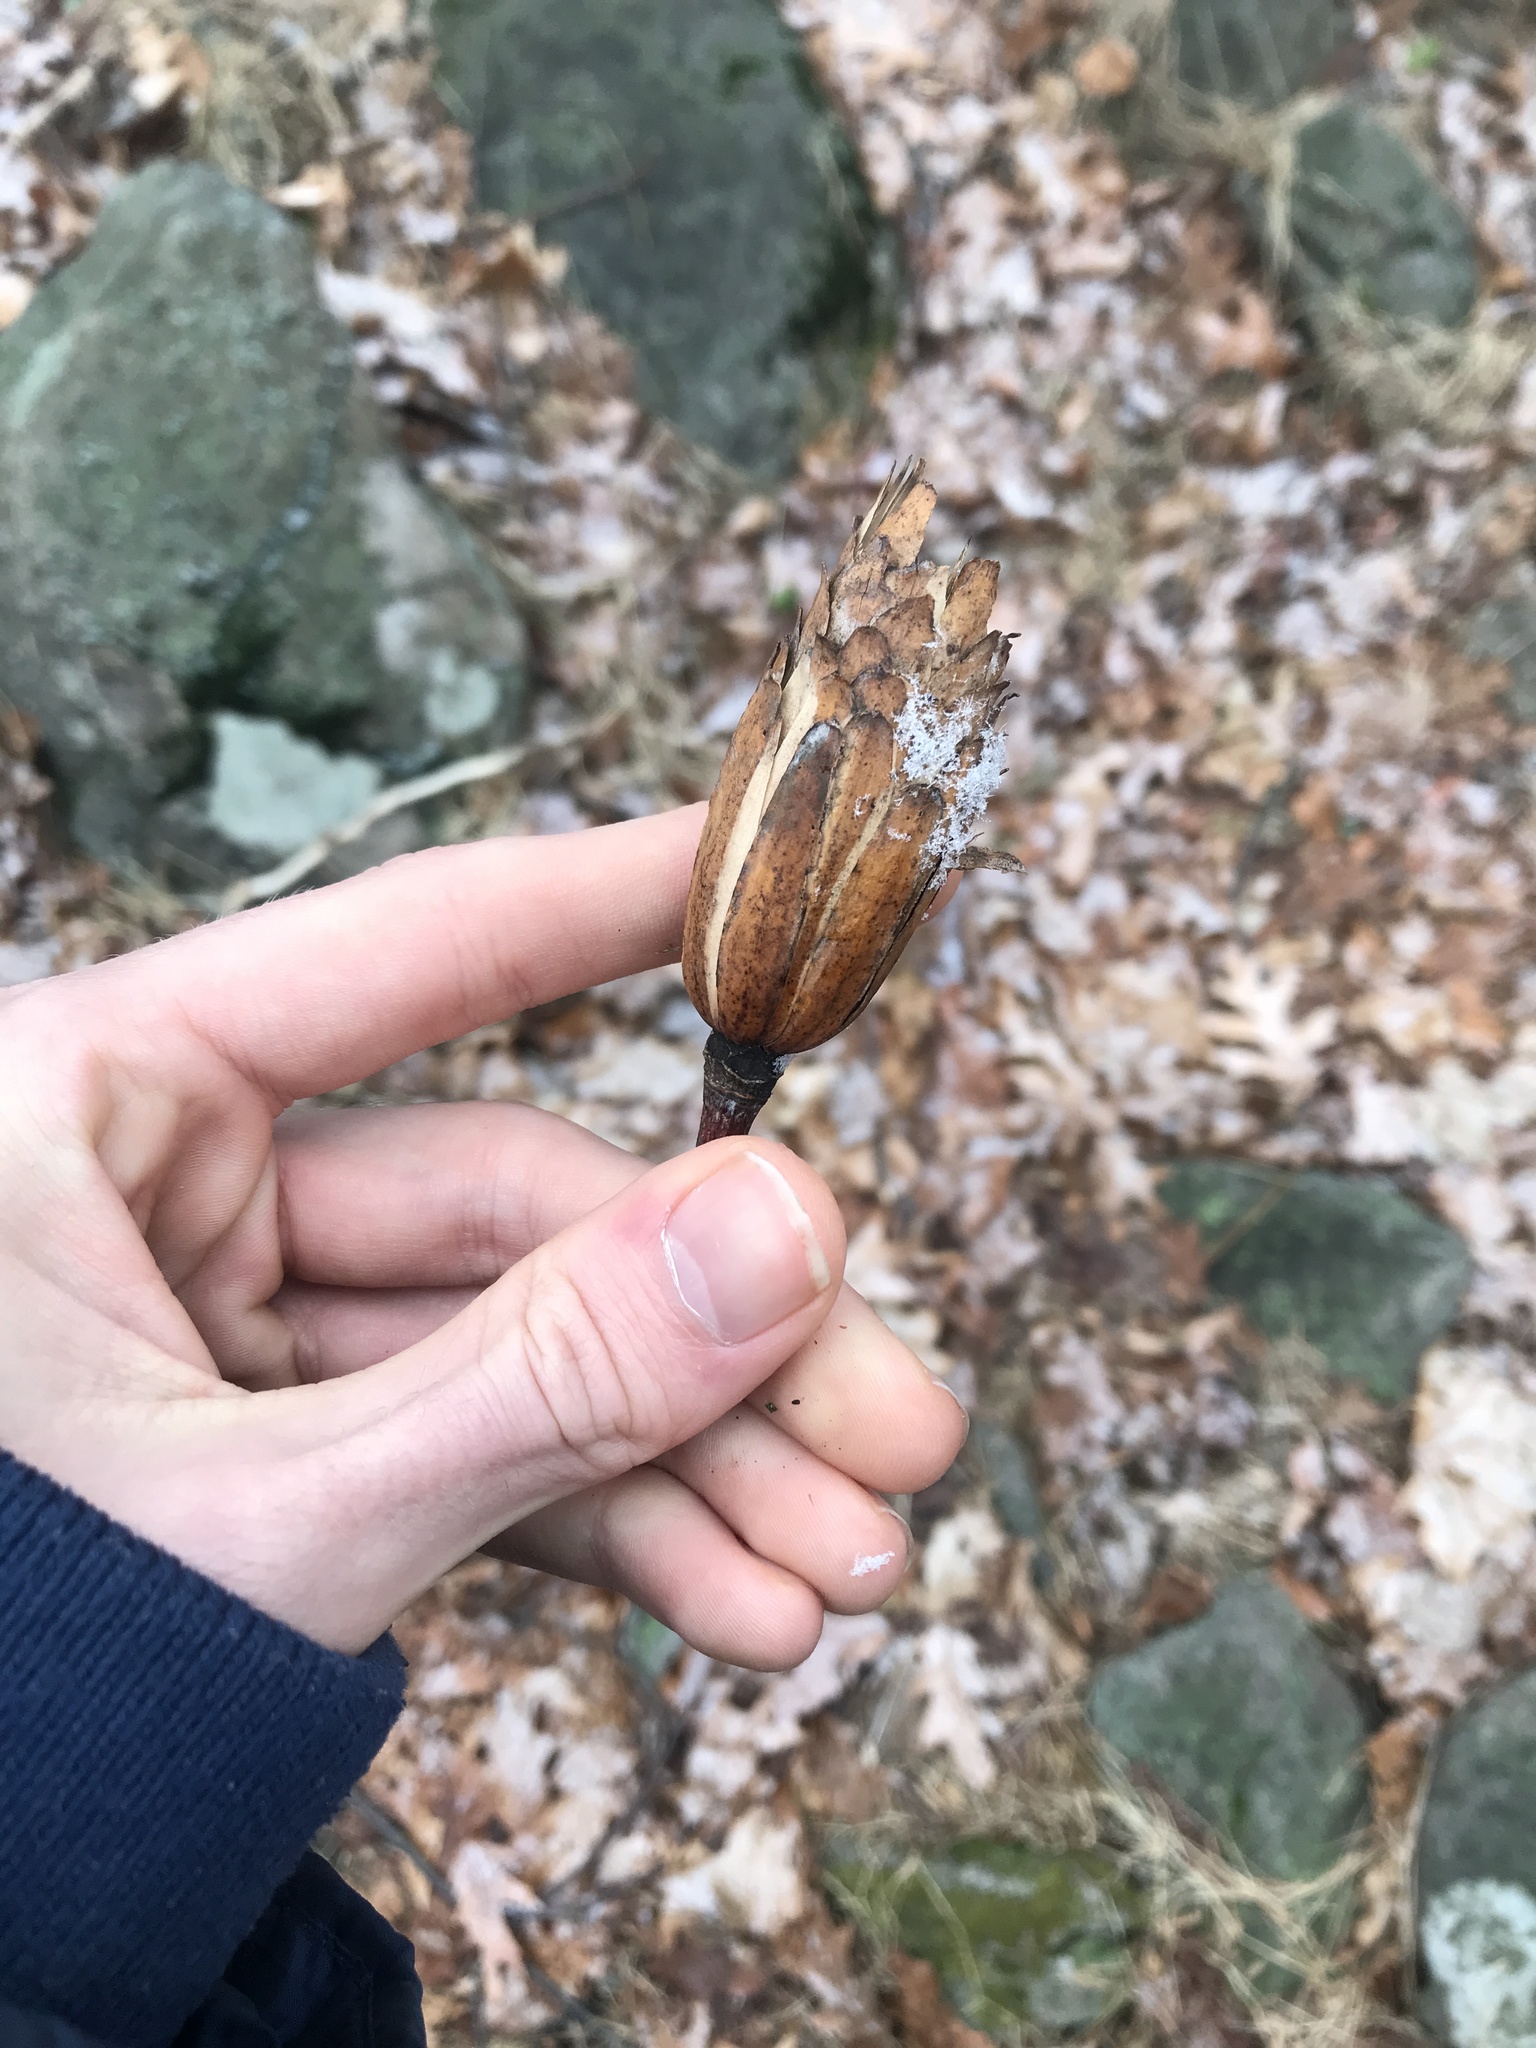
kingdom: Plantae
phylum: Tracheophyta
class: Magnoliopsida
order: Magnoliales
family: Magnoliaceae
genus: Liriodendron
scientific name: Liriodendron tulipifera
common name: Tulip tree
